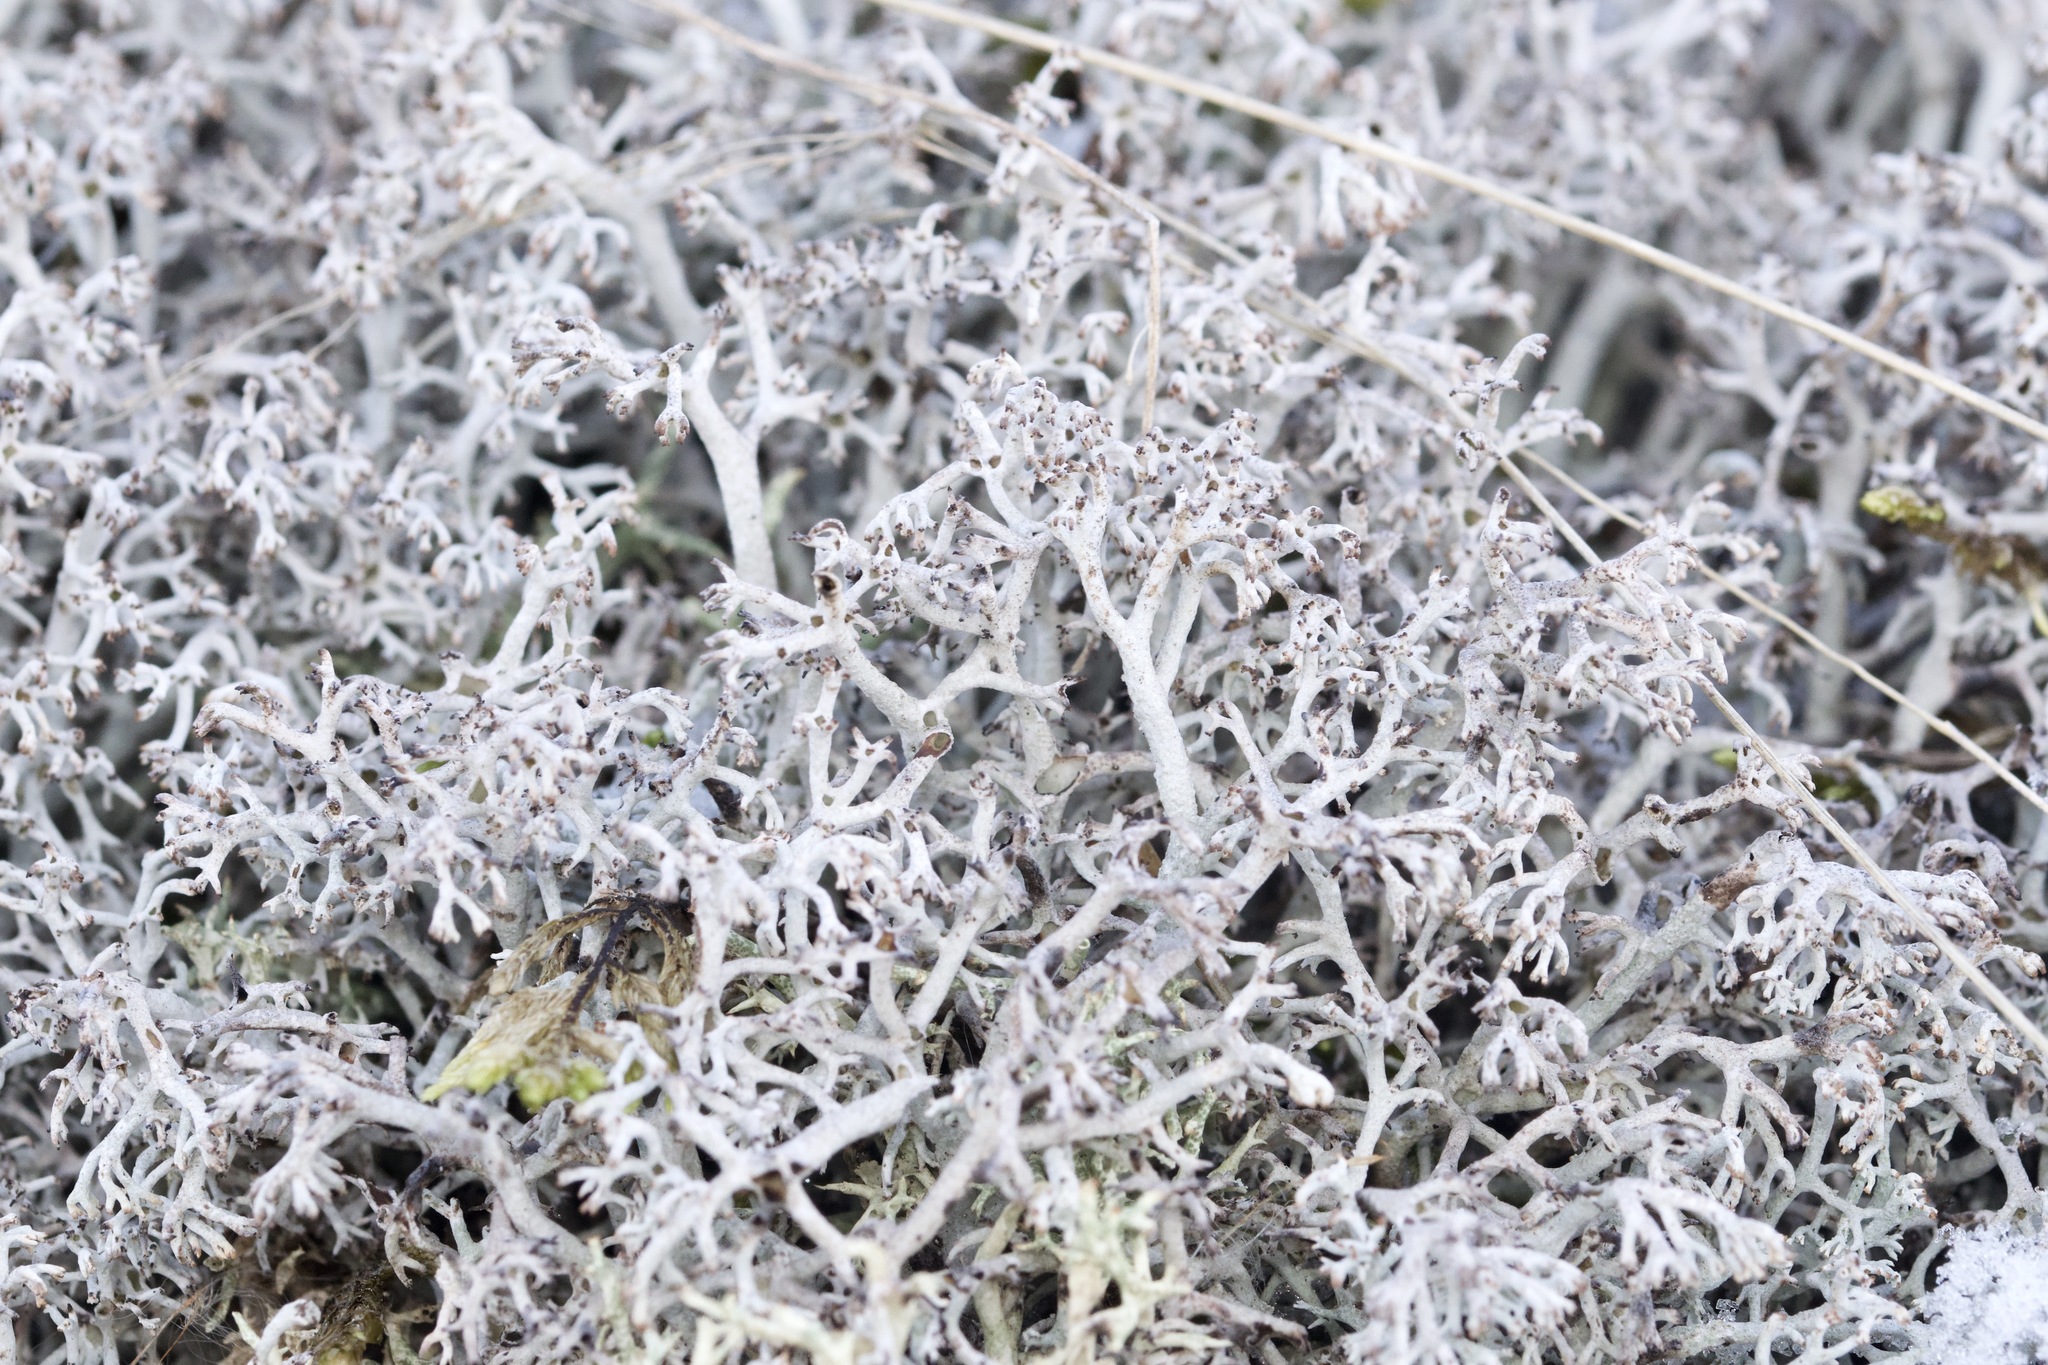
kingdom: Fungi
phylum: Ascomycota
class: Lecanoromycetes
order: Lecanorales
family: Cladoniaceae
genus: Cladonia
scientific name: Cladonia rangiferina
